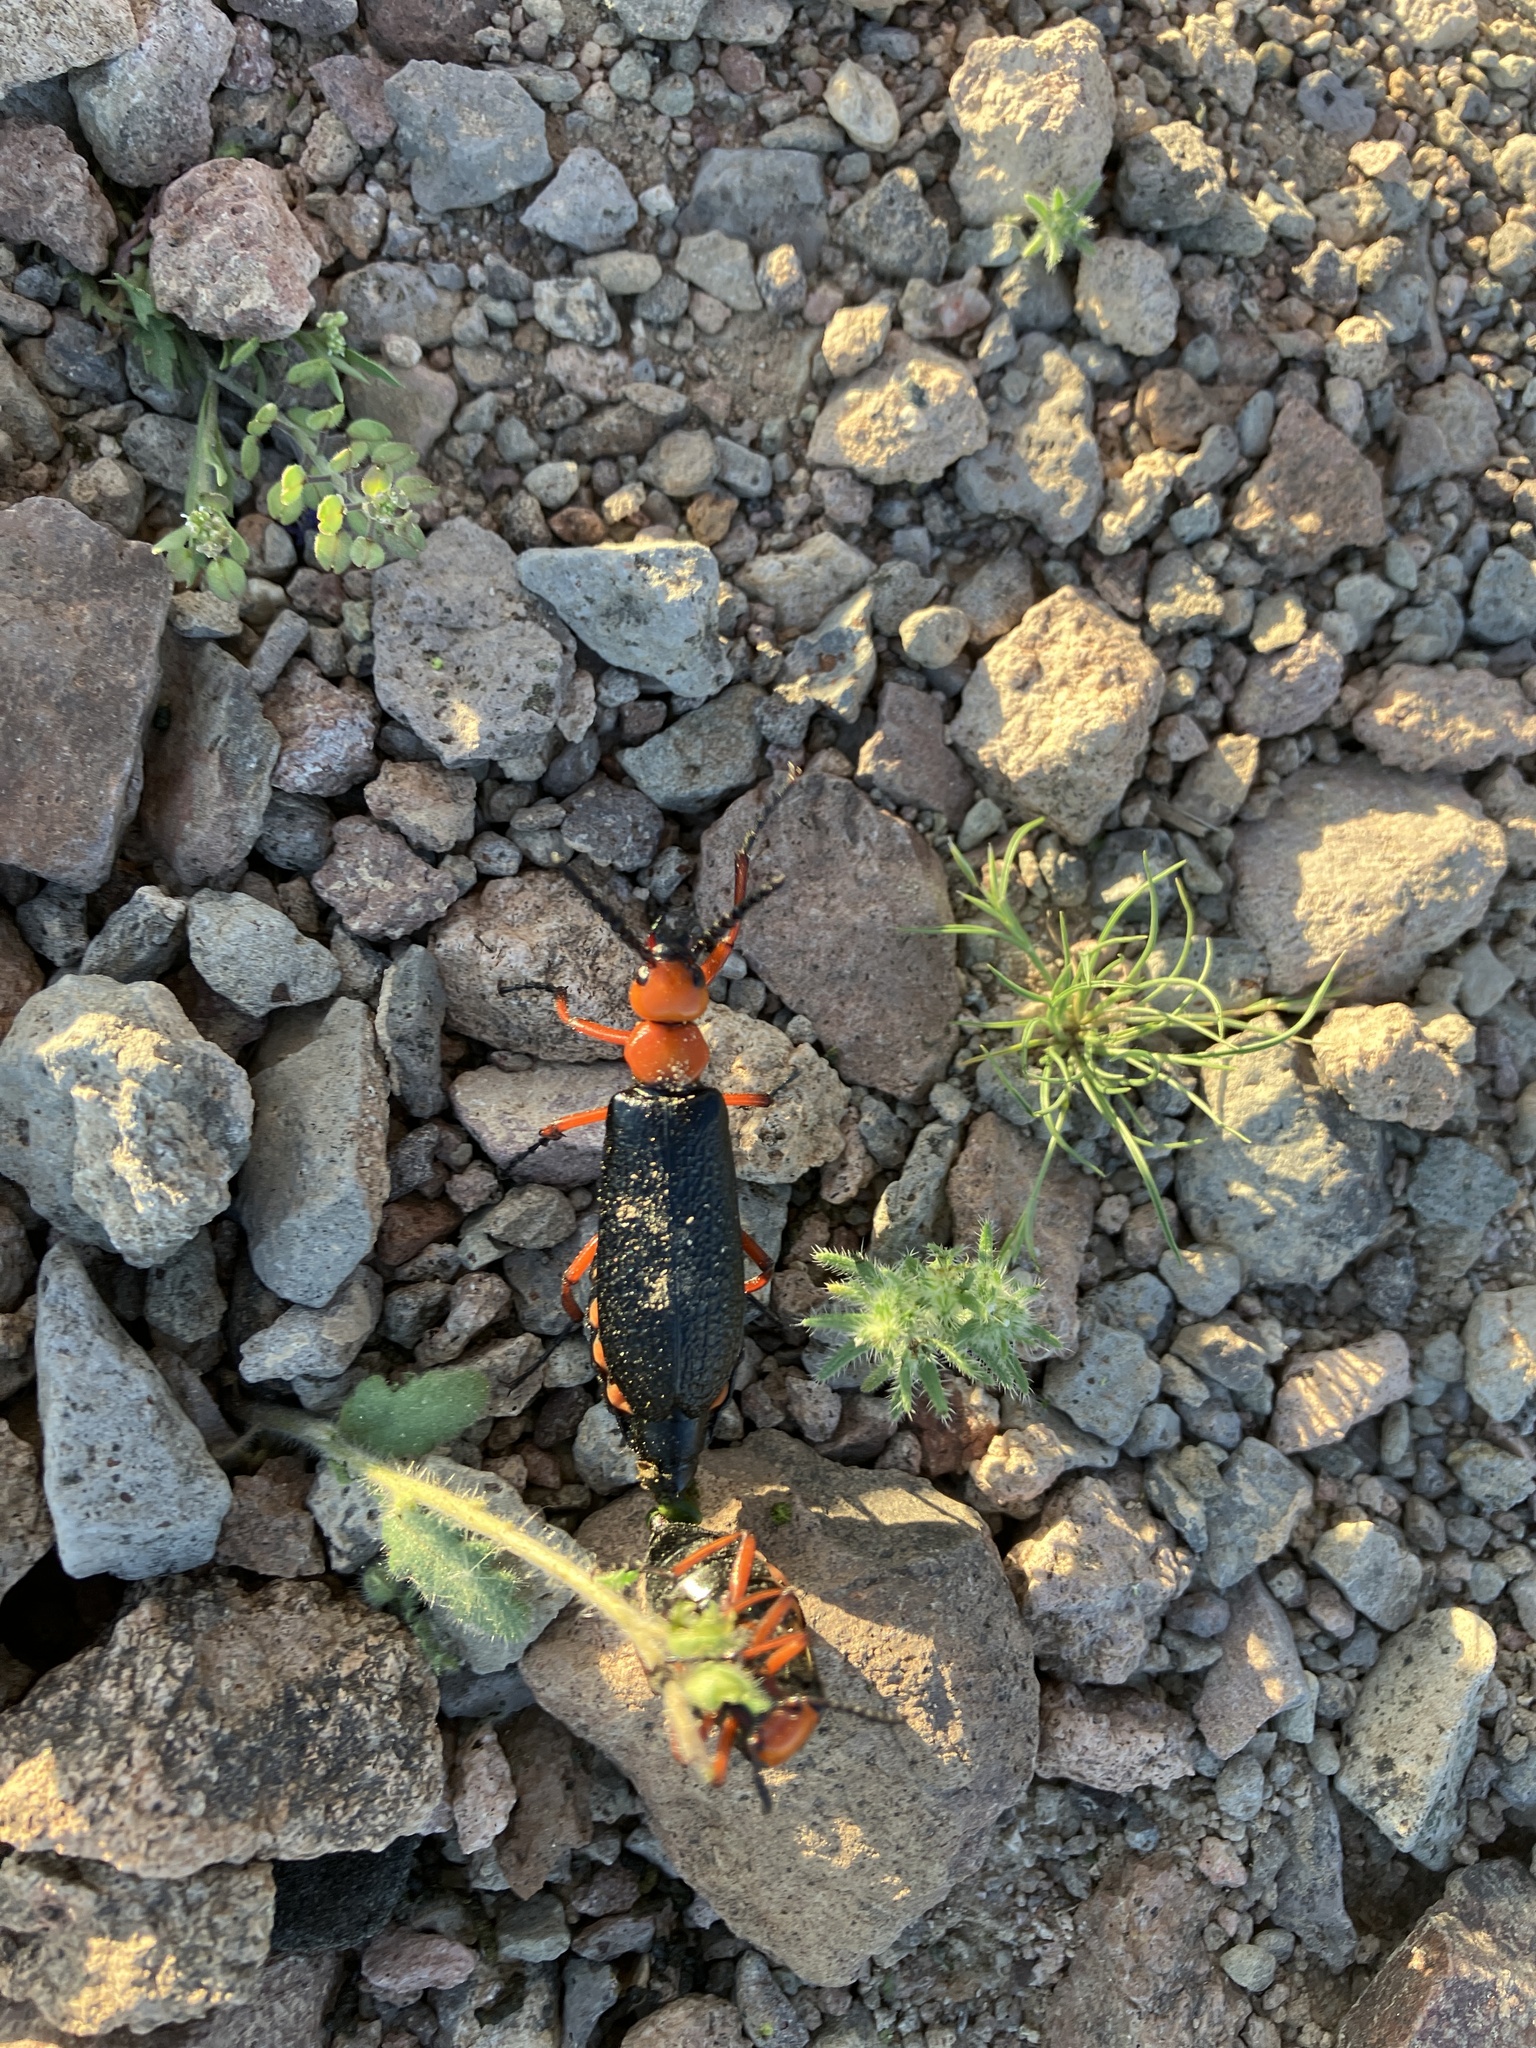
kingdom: Animalia
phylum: Arthropoda
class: Insecta
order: Coleoptera
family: Meloidae
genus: Lytta
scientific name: Lytta magister
